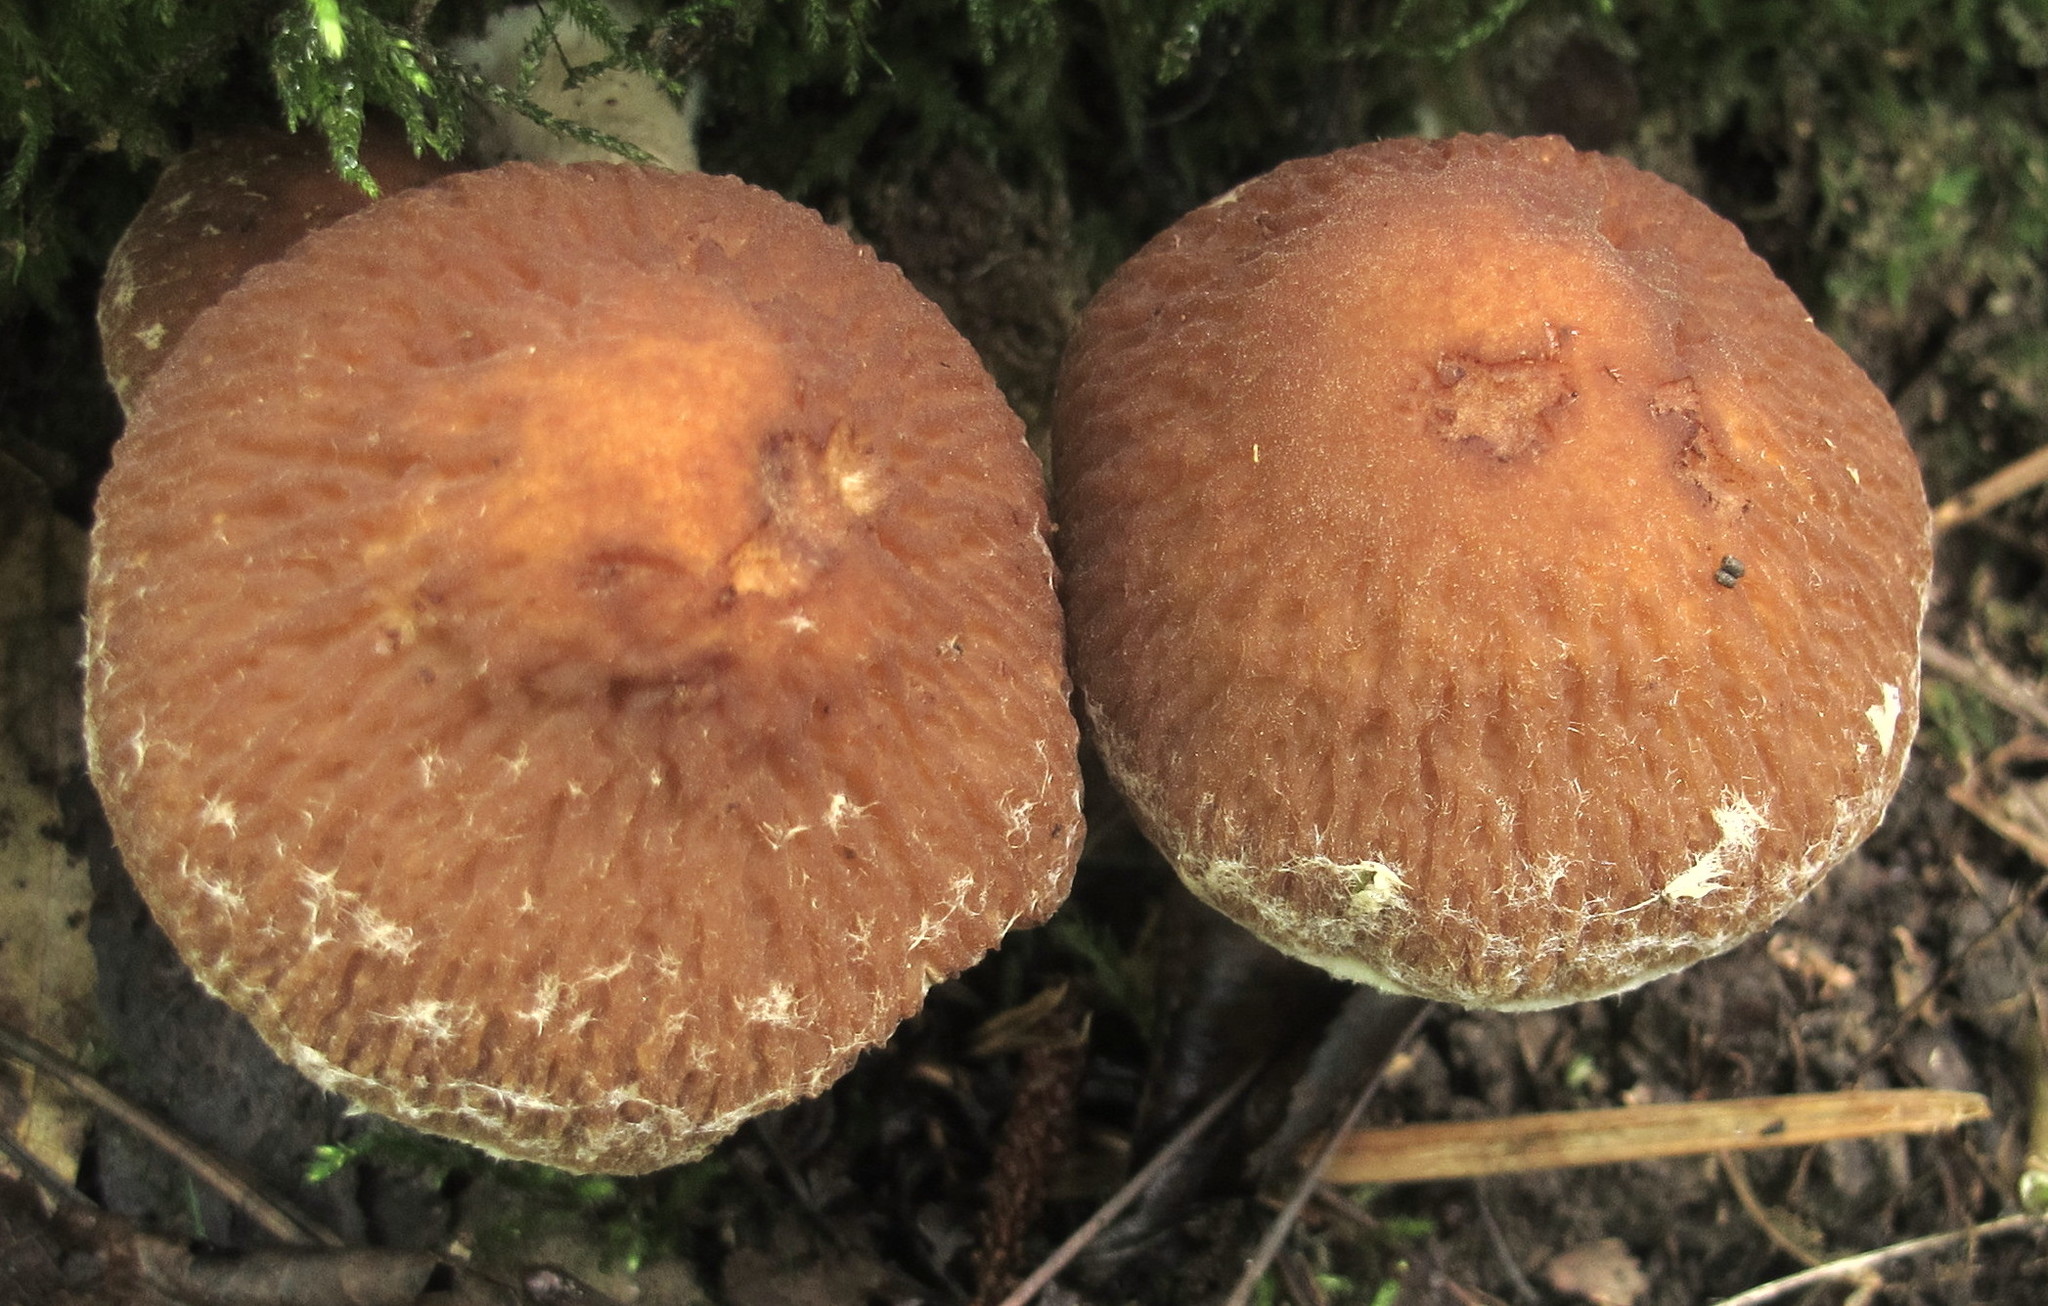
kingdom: Fungi
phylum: Basidiomycota
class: Agaricomycetes
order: Agaricales
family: Psathyrellaceae
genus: Typhrasa
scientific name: Typhrasa gossypina
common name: Wrinkled psathyrella
